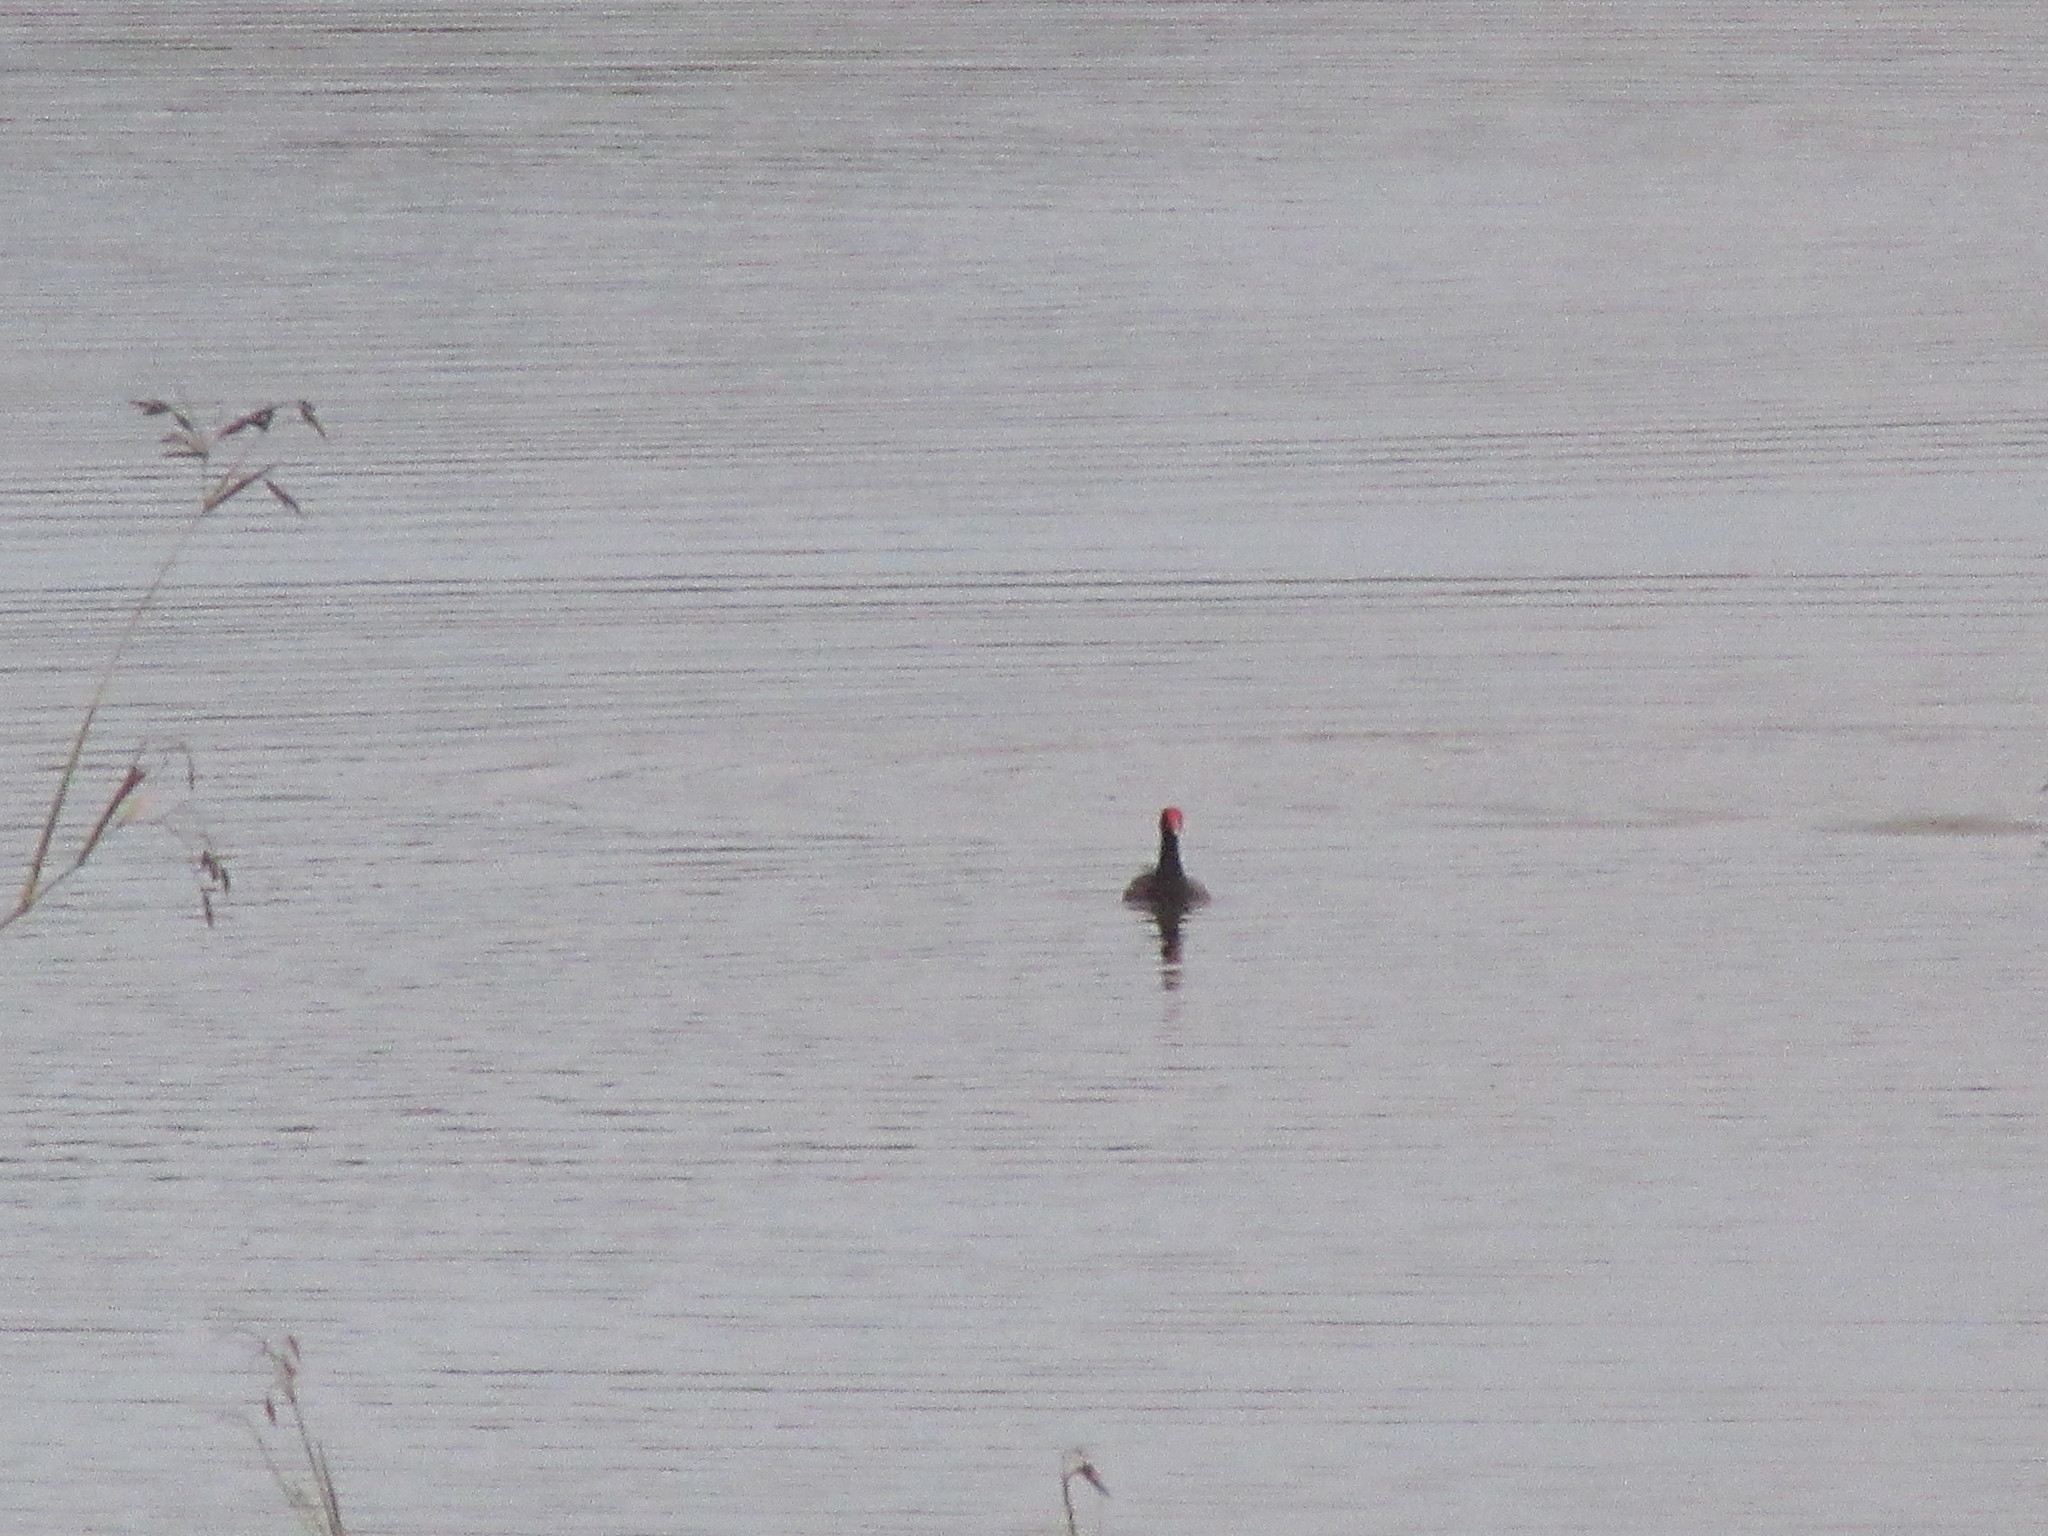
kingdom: Animalia
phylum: Chordata
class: Aves
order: Gruiformes
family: Rallidae
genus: Gallinula
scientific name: Gallinula chloropus
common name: Common moorhen
